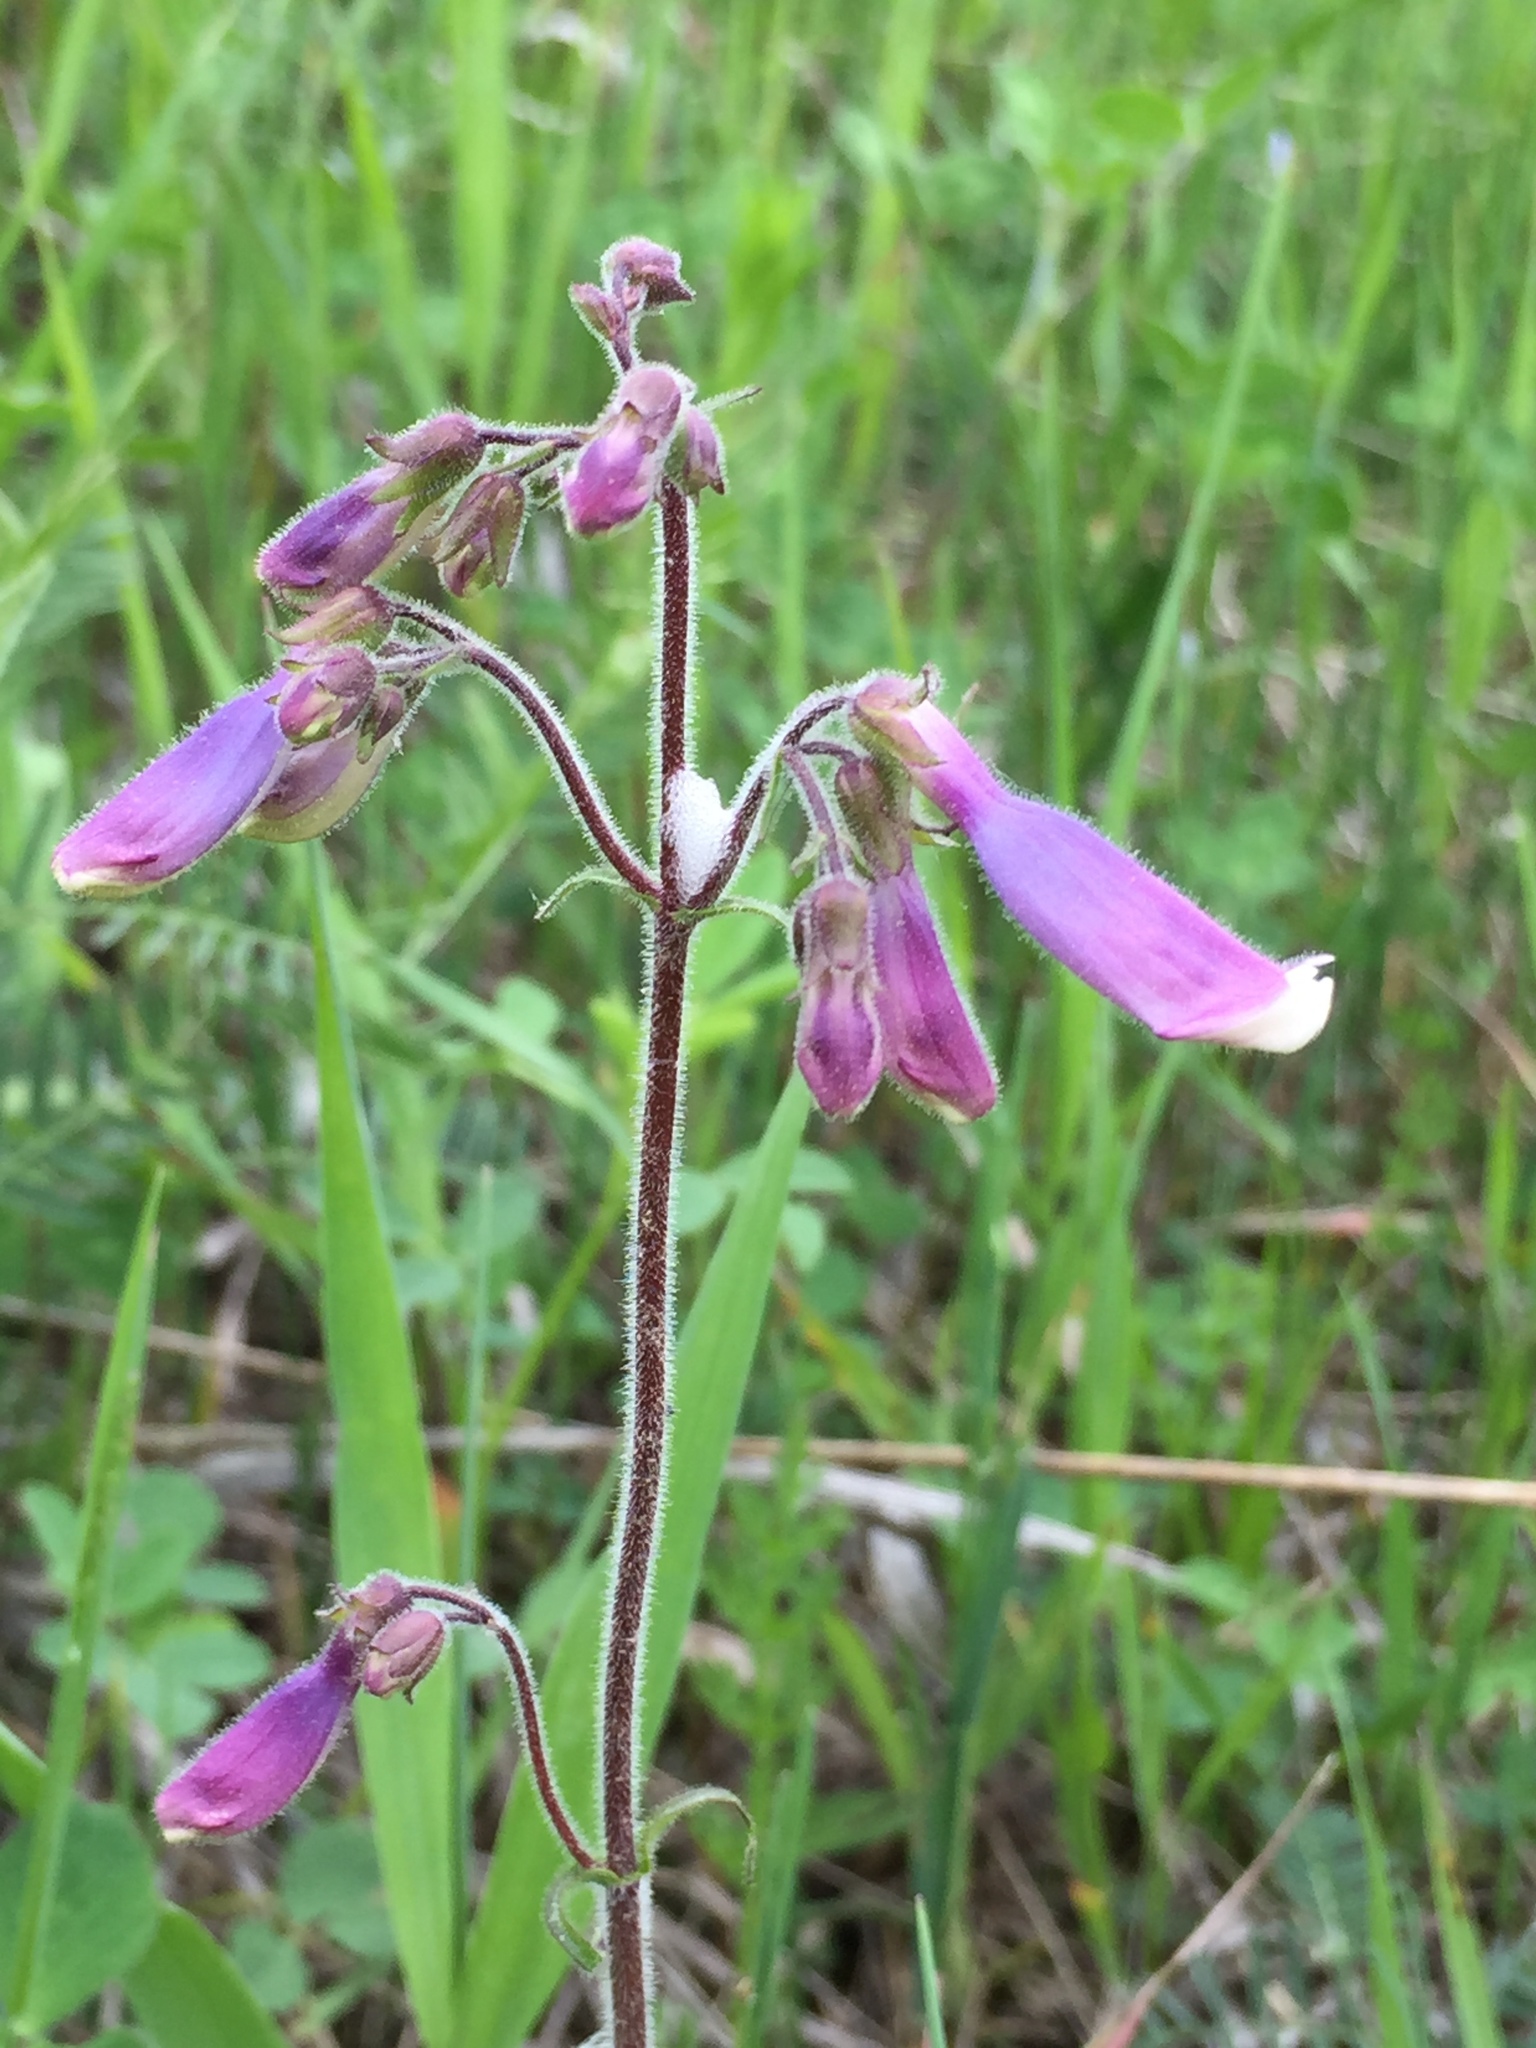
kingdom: Plantae
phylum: Tracheophyta
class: Magnoliopsida
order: Lamiales
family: Plantaginaceae
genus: Penstemon
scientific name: Penstemon hirsutus
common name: Hairy beardtongue
